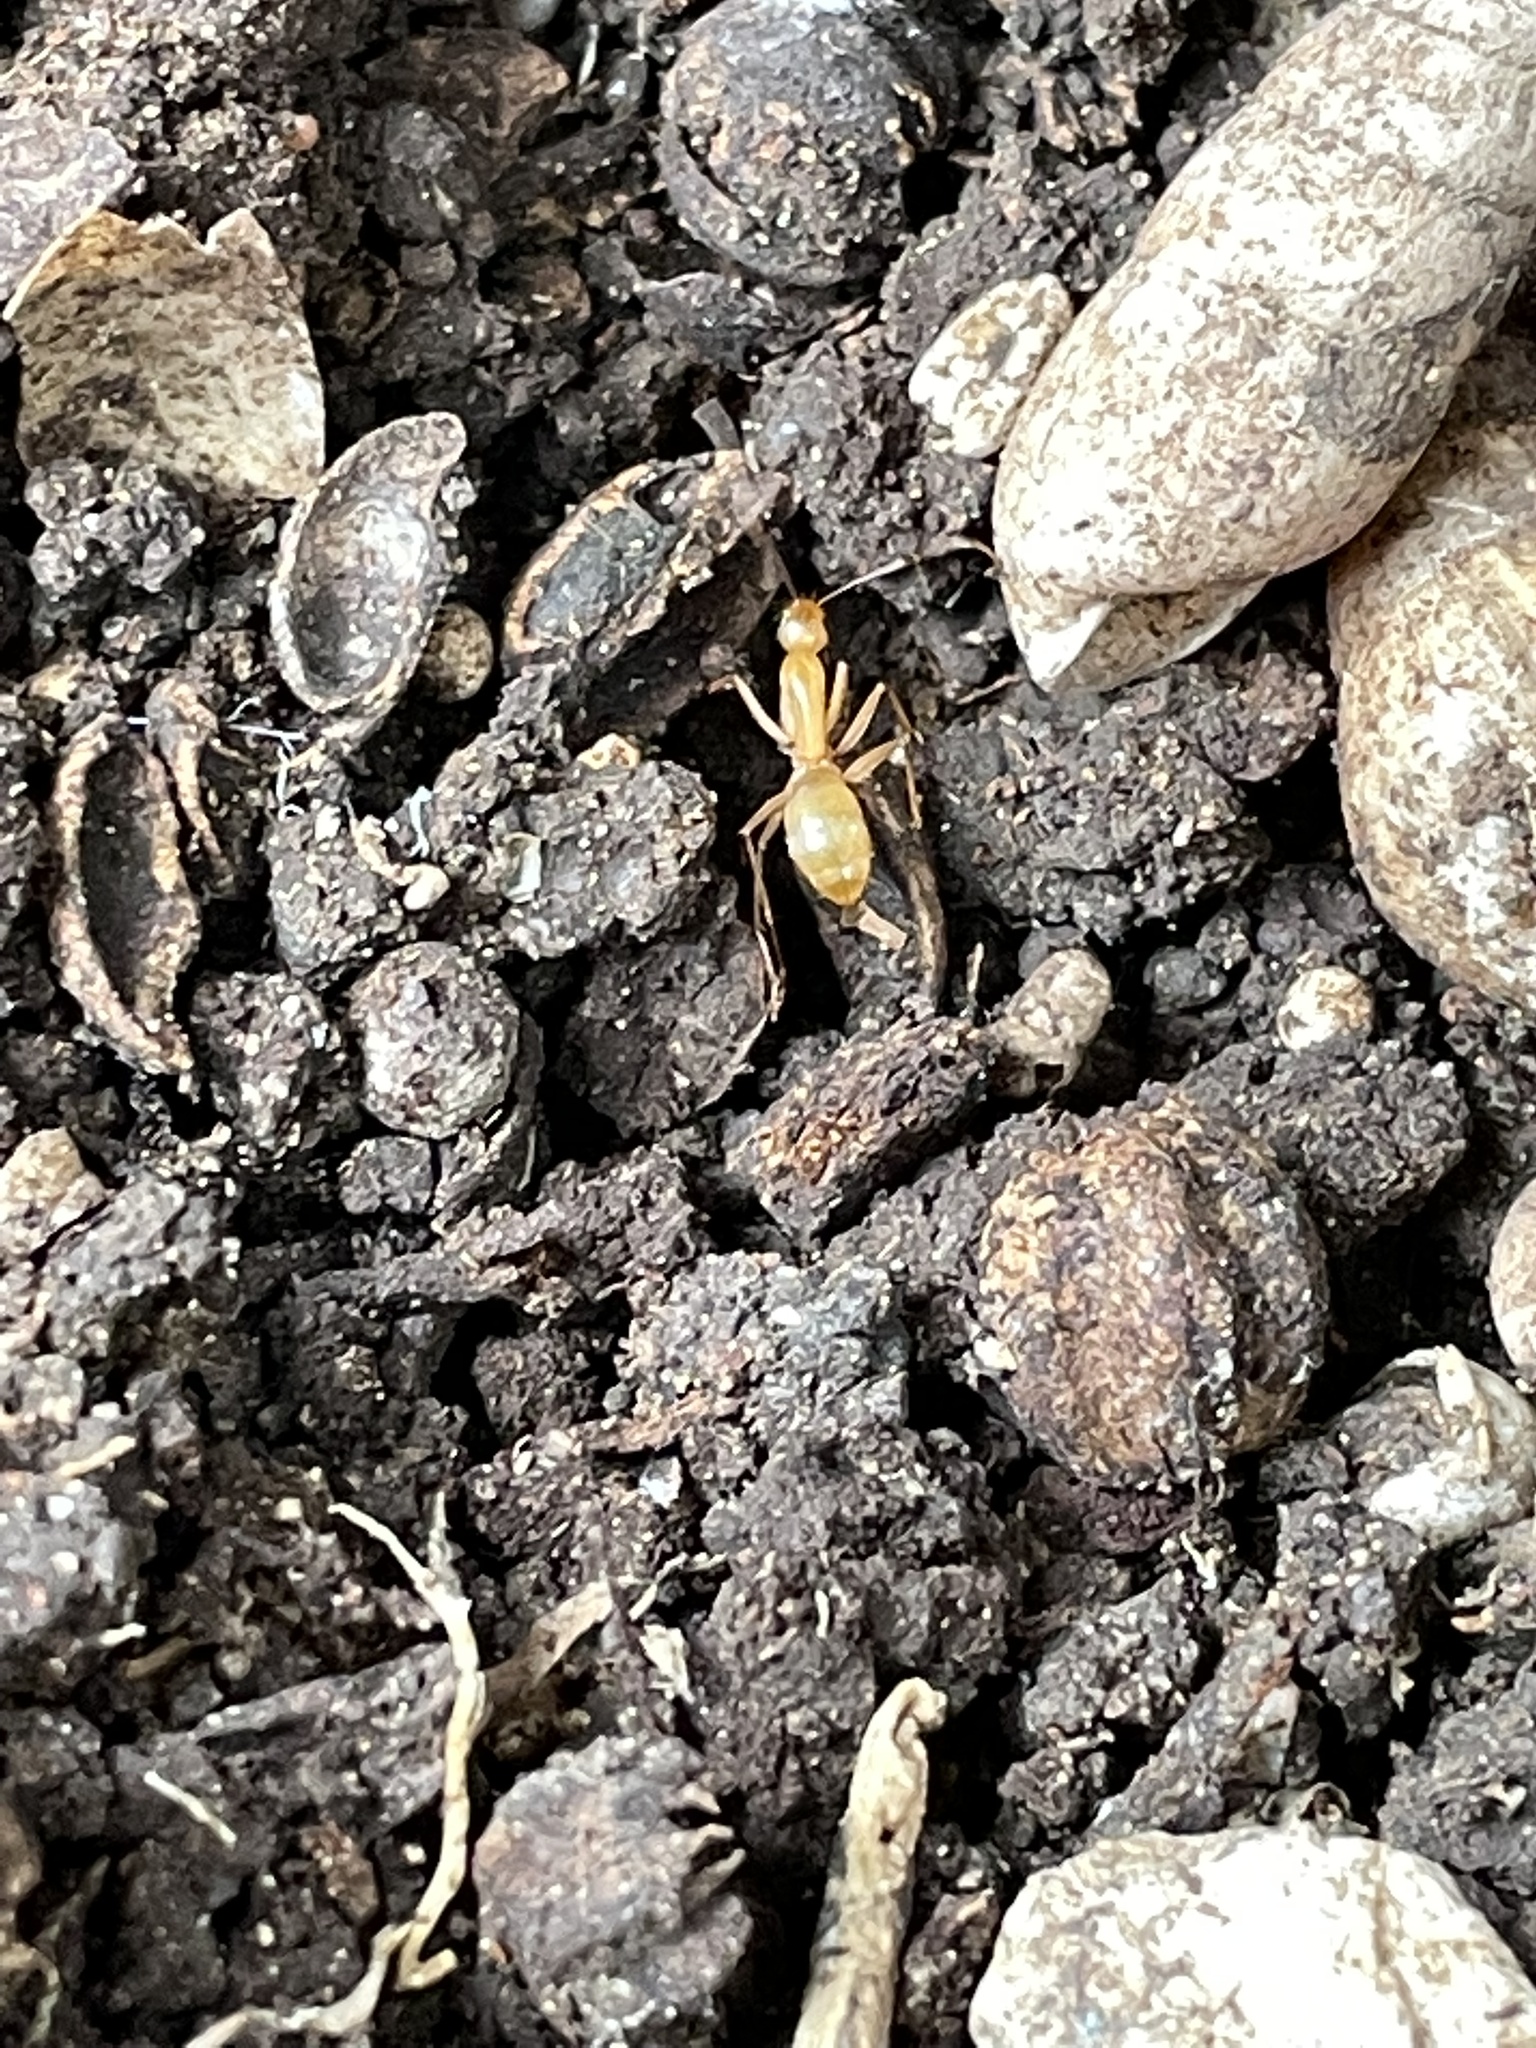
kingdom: Animalia
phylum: Arthropoda
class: Insecta
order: Hymenoptera
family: Formicidae
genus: Camponotus
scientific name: Camponotus festinatus
